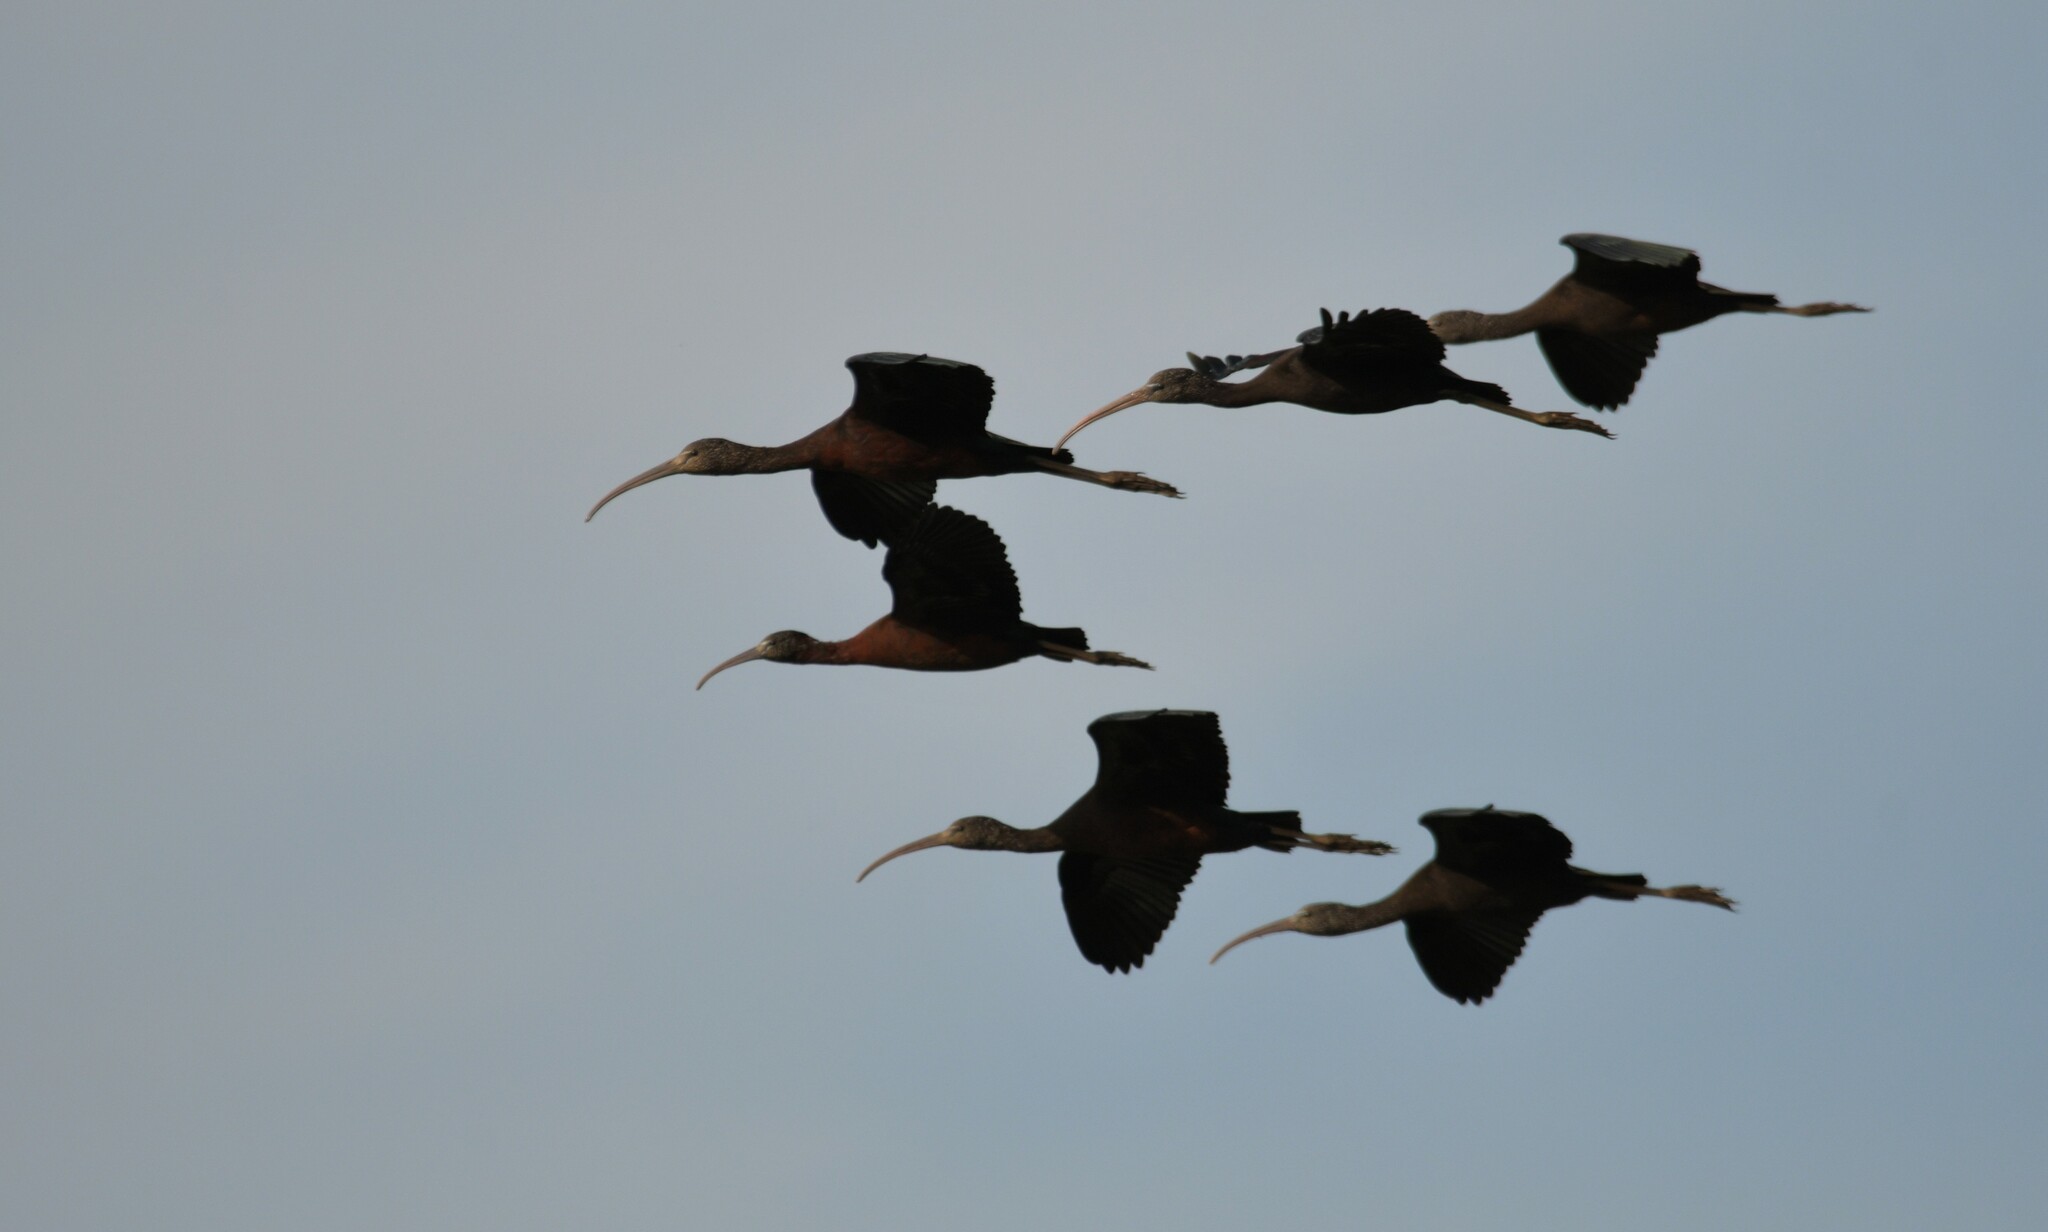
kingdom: Animalia
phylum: Chordata
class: Aves
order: Pelecaniformes
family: Threskiornithidae
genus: Plegadis
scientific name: Plegadis falcinellus
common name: Glossy ibis
